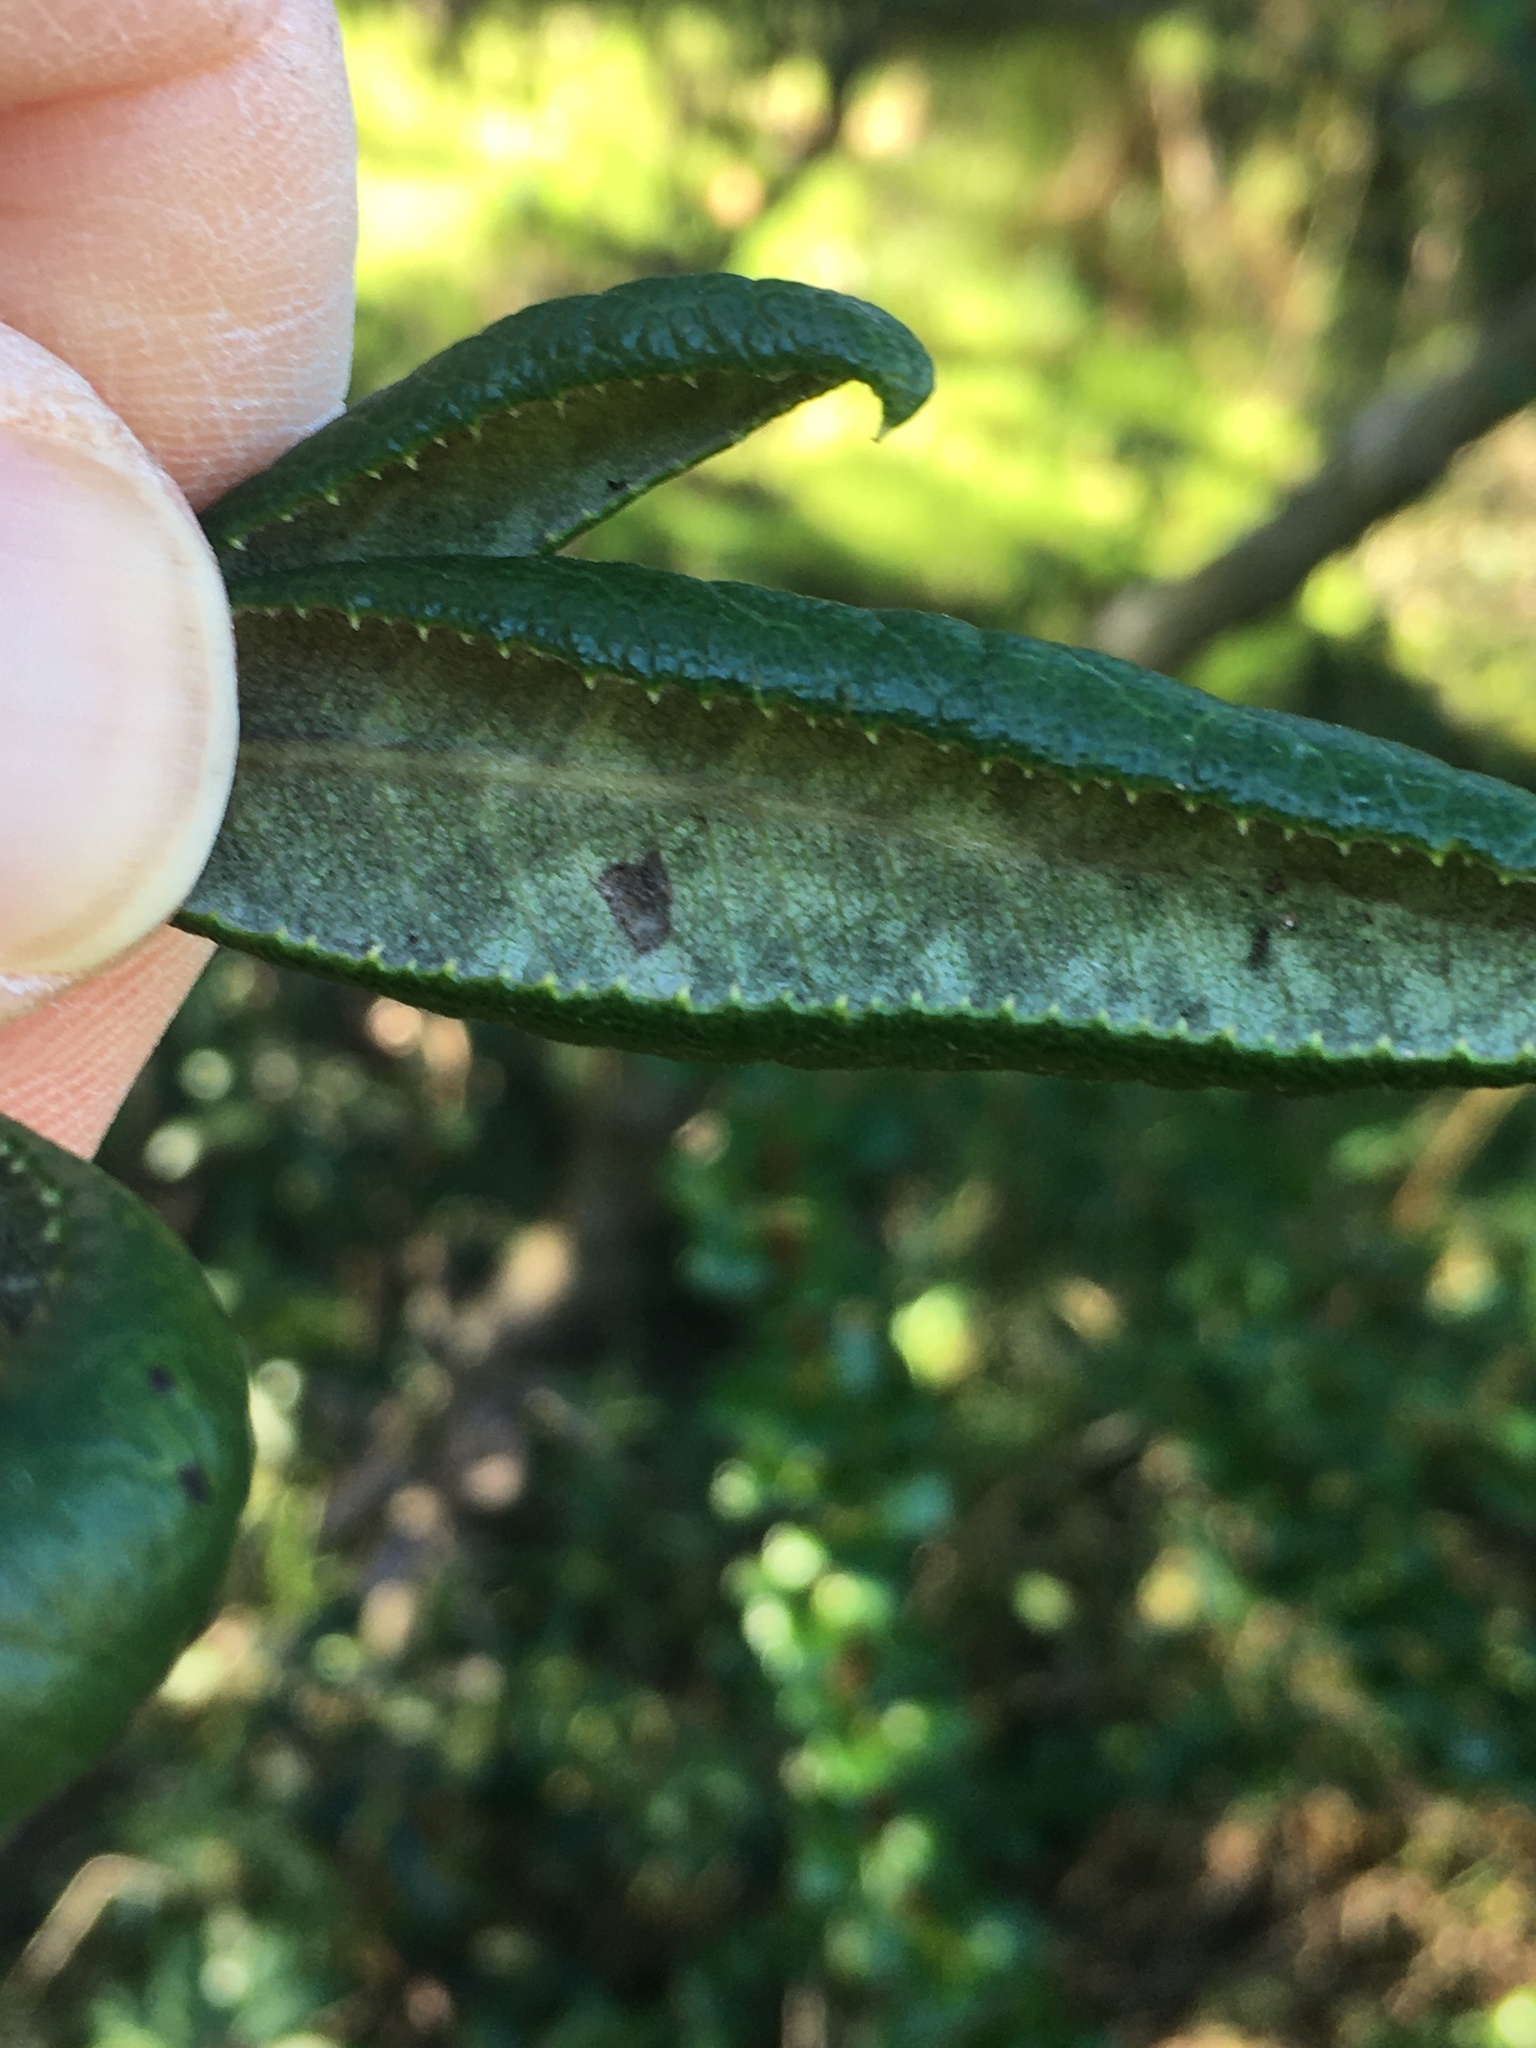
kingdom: Plantae
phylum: Tracheophyta
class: Magnoliopsida
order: Ericales
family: Ericaceae
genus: Comarostaphylis
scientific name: Comarostaphylis diversifolia
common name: Summer-holly
